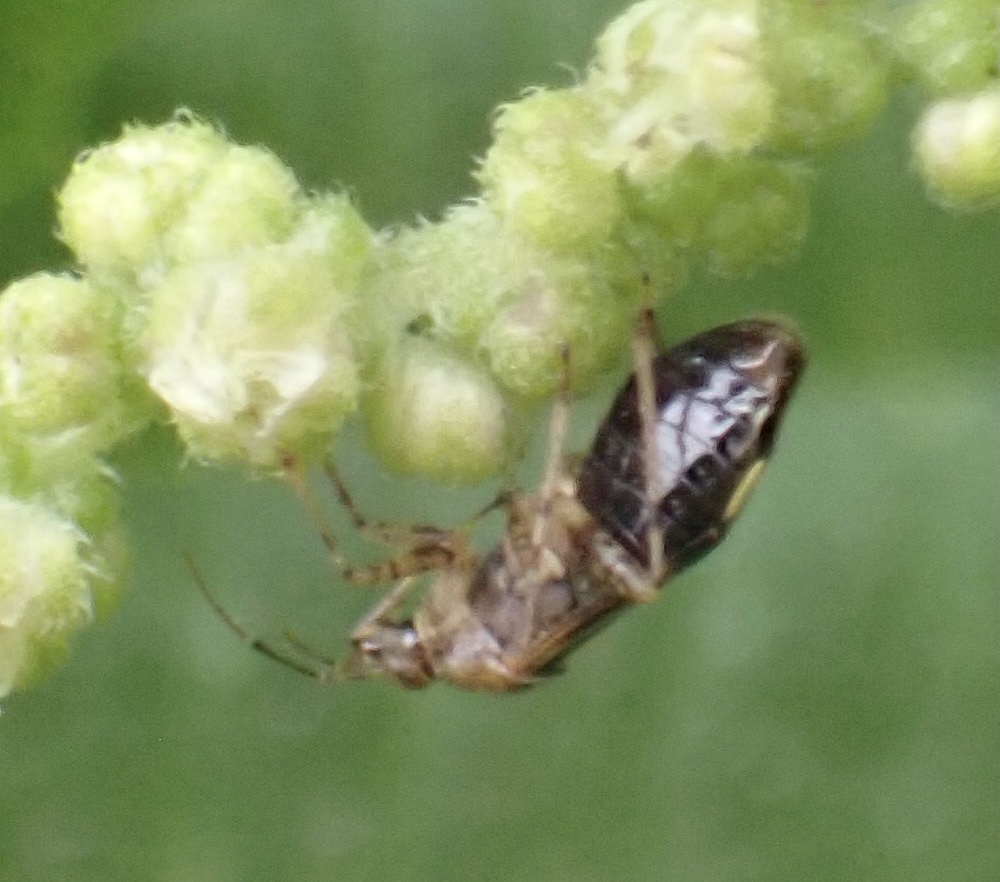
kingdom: Animalia
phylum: Arthropoda
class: Insecta
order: Hemiptera
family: Miridae
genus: Liocoris
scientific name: Liocoris tripustulatus
